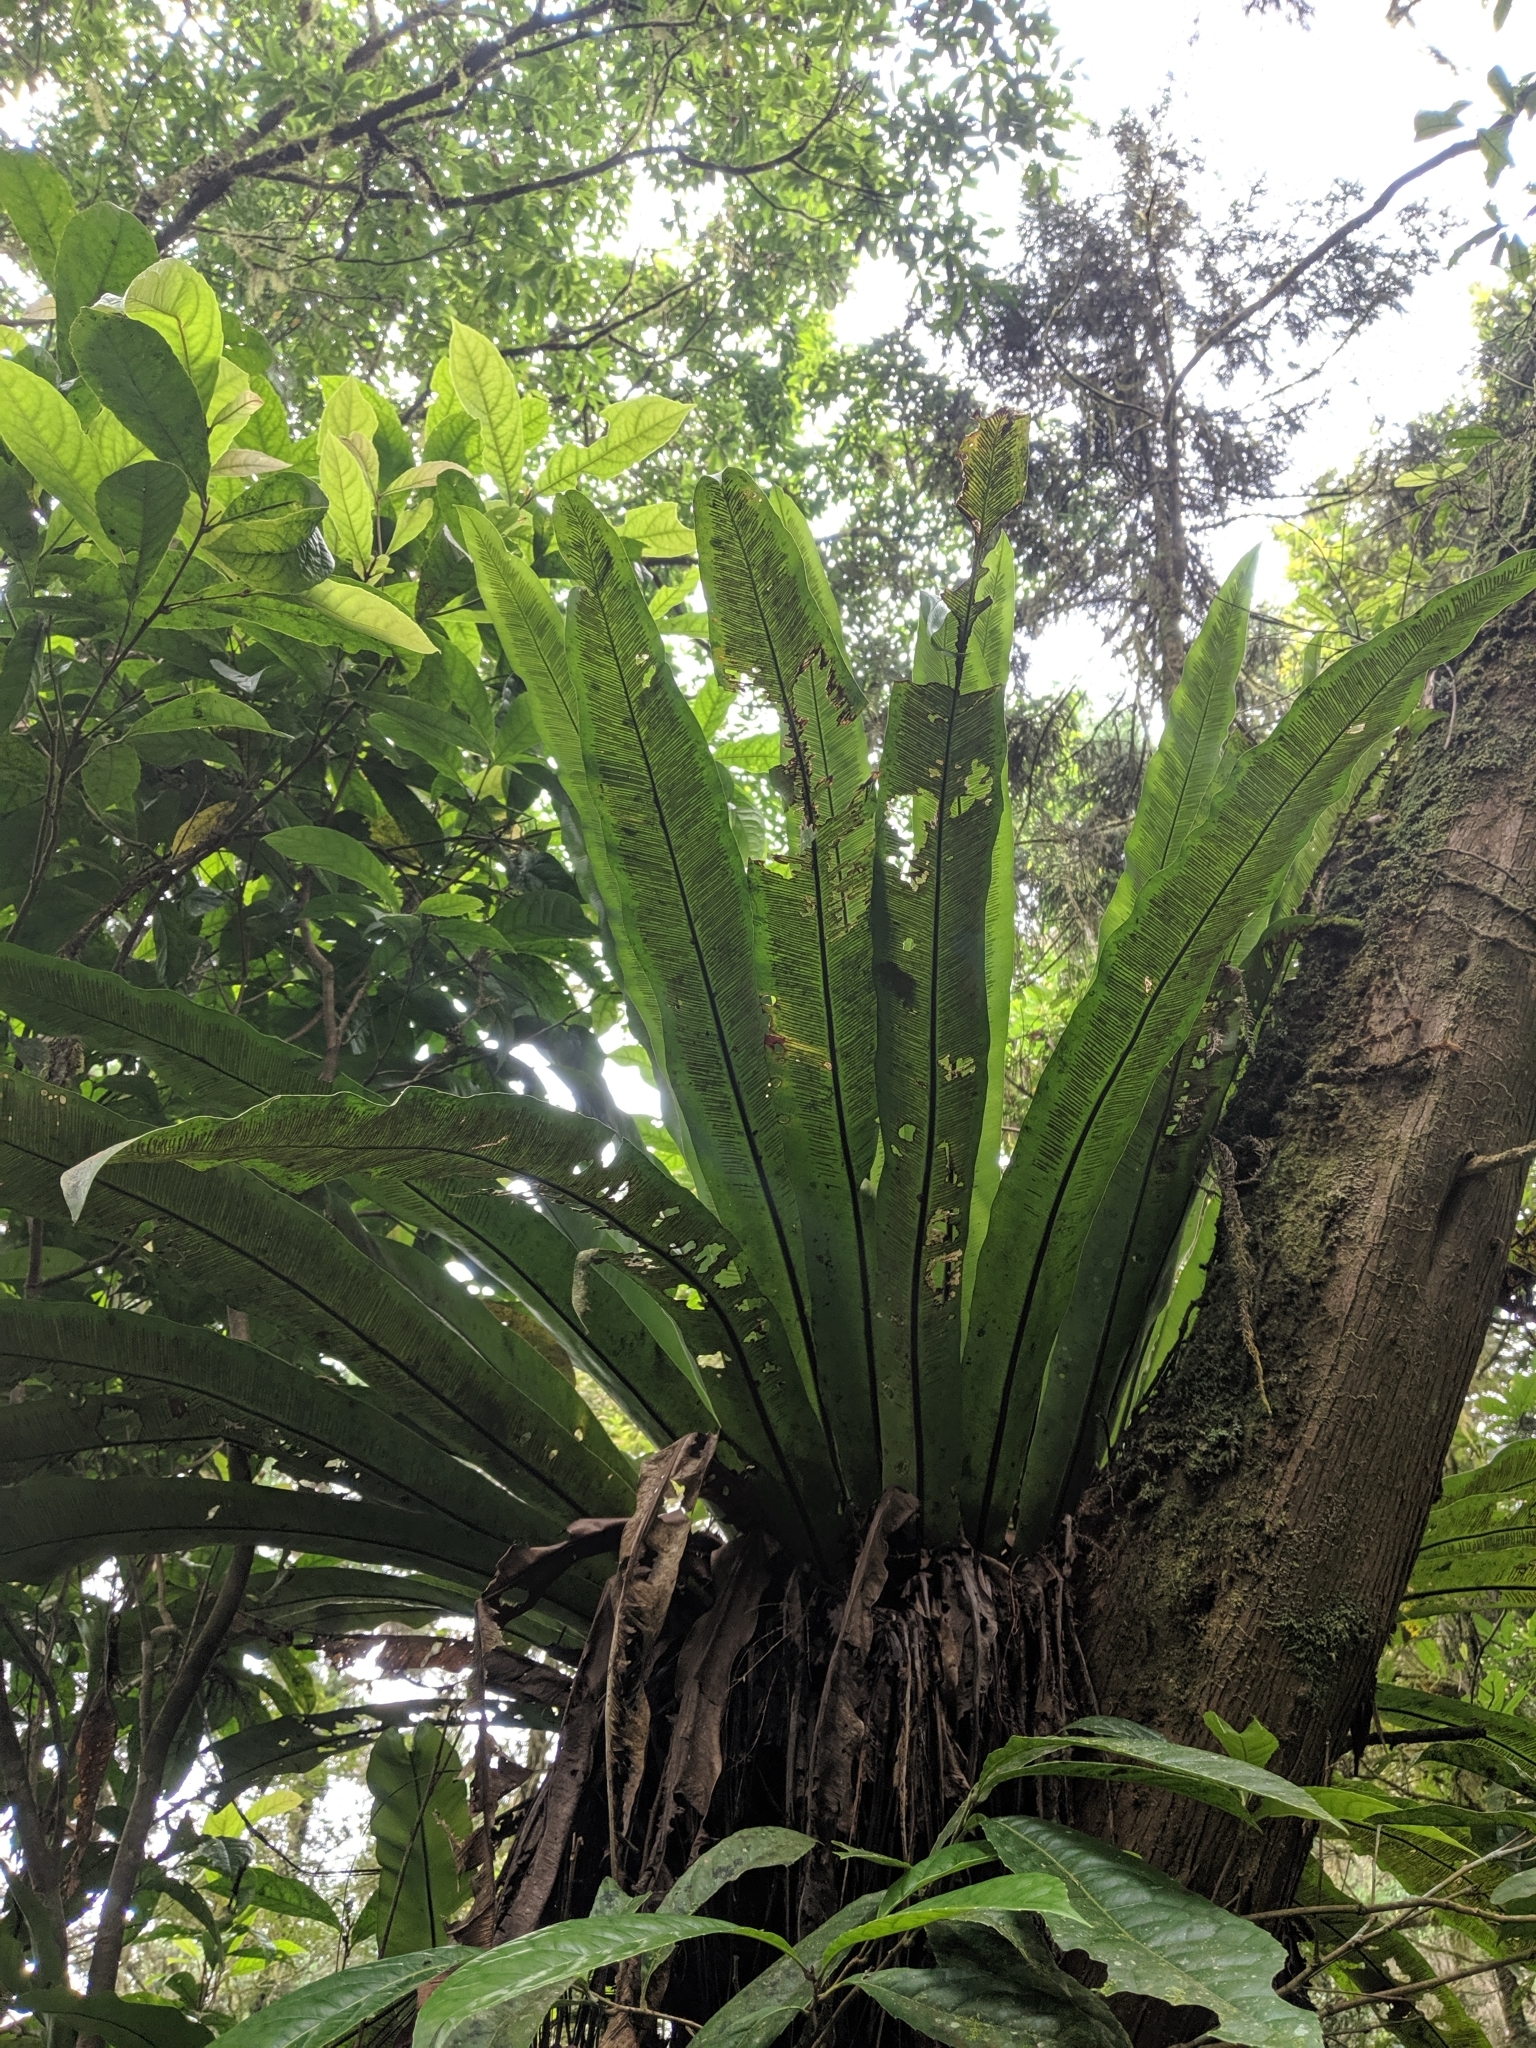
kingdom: Plantae
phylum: Tracheophyta
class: Polypodiopsida
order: Polypodiales
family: Aspleniaceae
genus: Asplenium
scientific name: Asplenium antiquum
